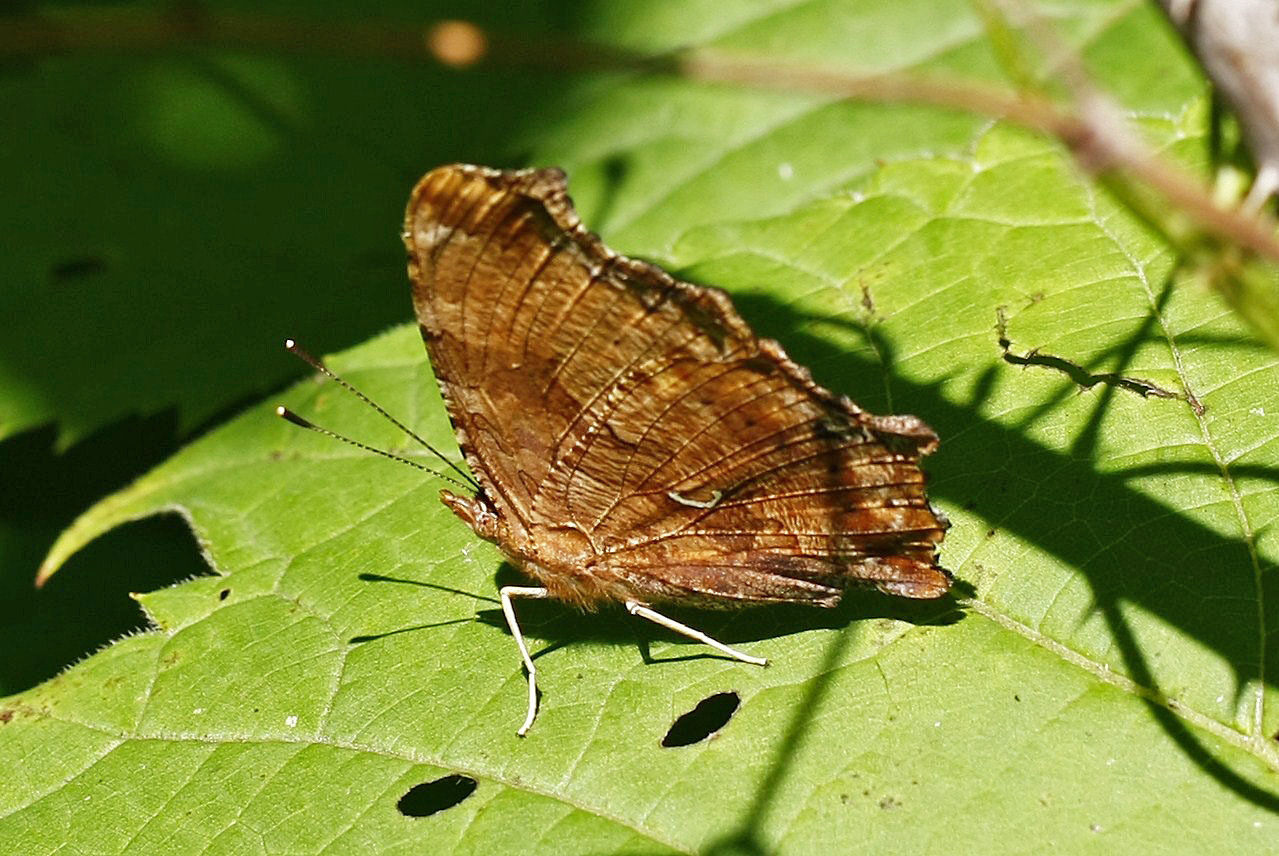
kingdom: Animalia
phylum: Arthropoda
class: Insecta
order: Lepidoptera
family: Nymphalidae
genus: Polygonia
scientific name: Polygonia comma
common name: Eastern comma
